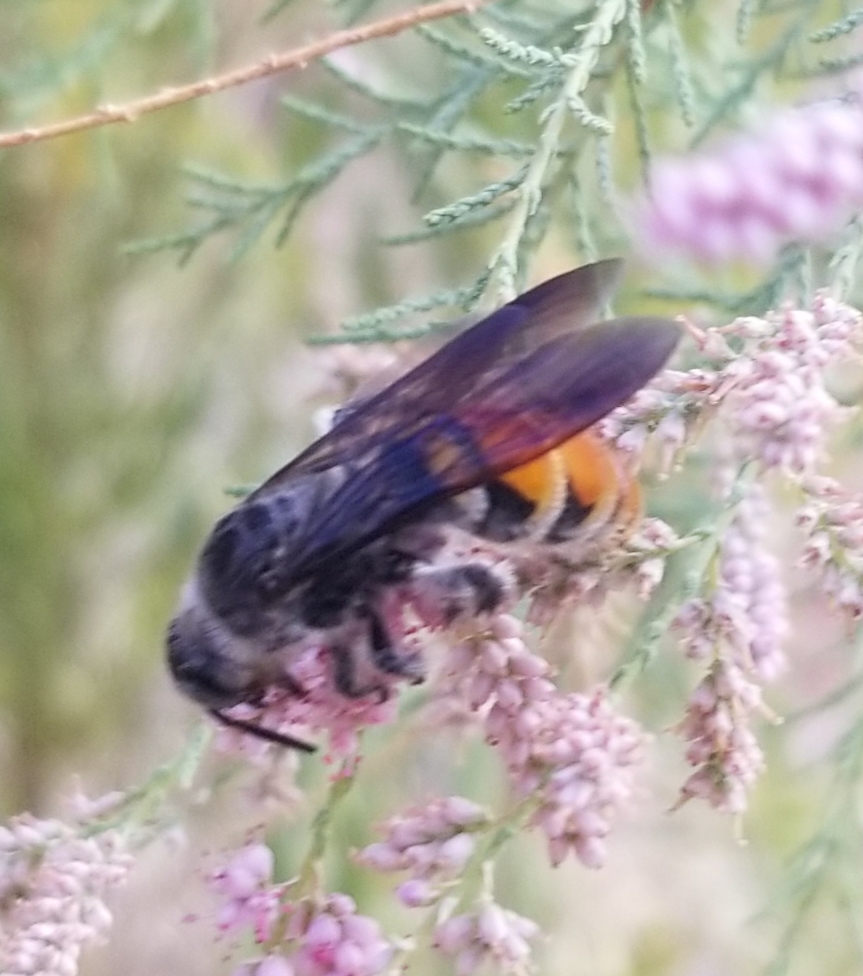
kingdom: Animalia
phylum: Arthropoda
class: Insecta
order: Hymenoptera
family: Scoliidae
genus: Dielis
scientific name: Dielis tolteca
